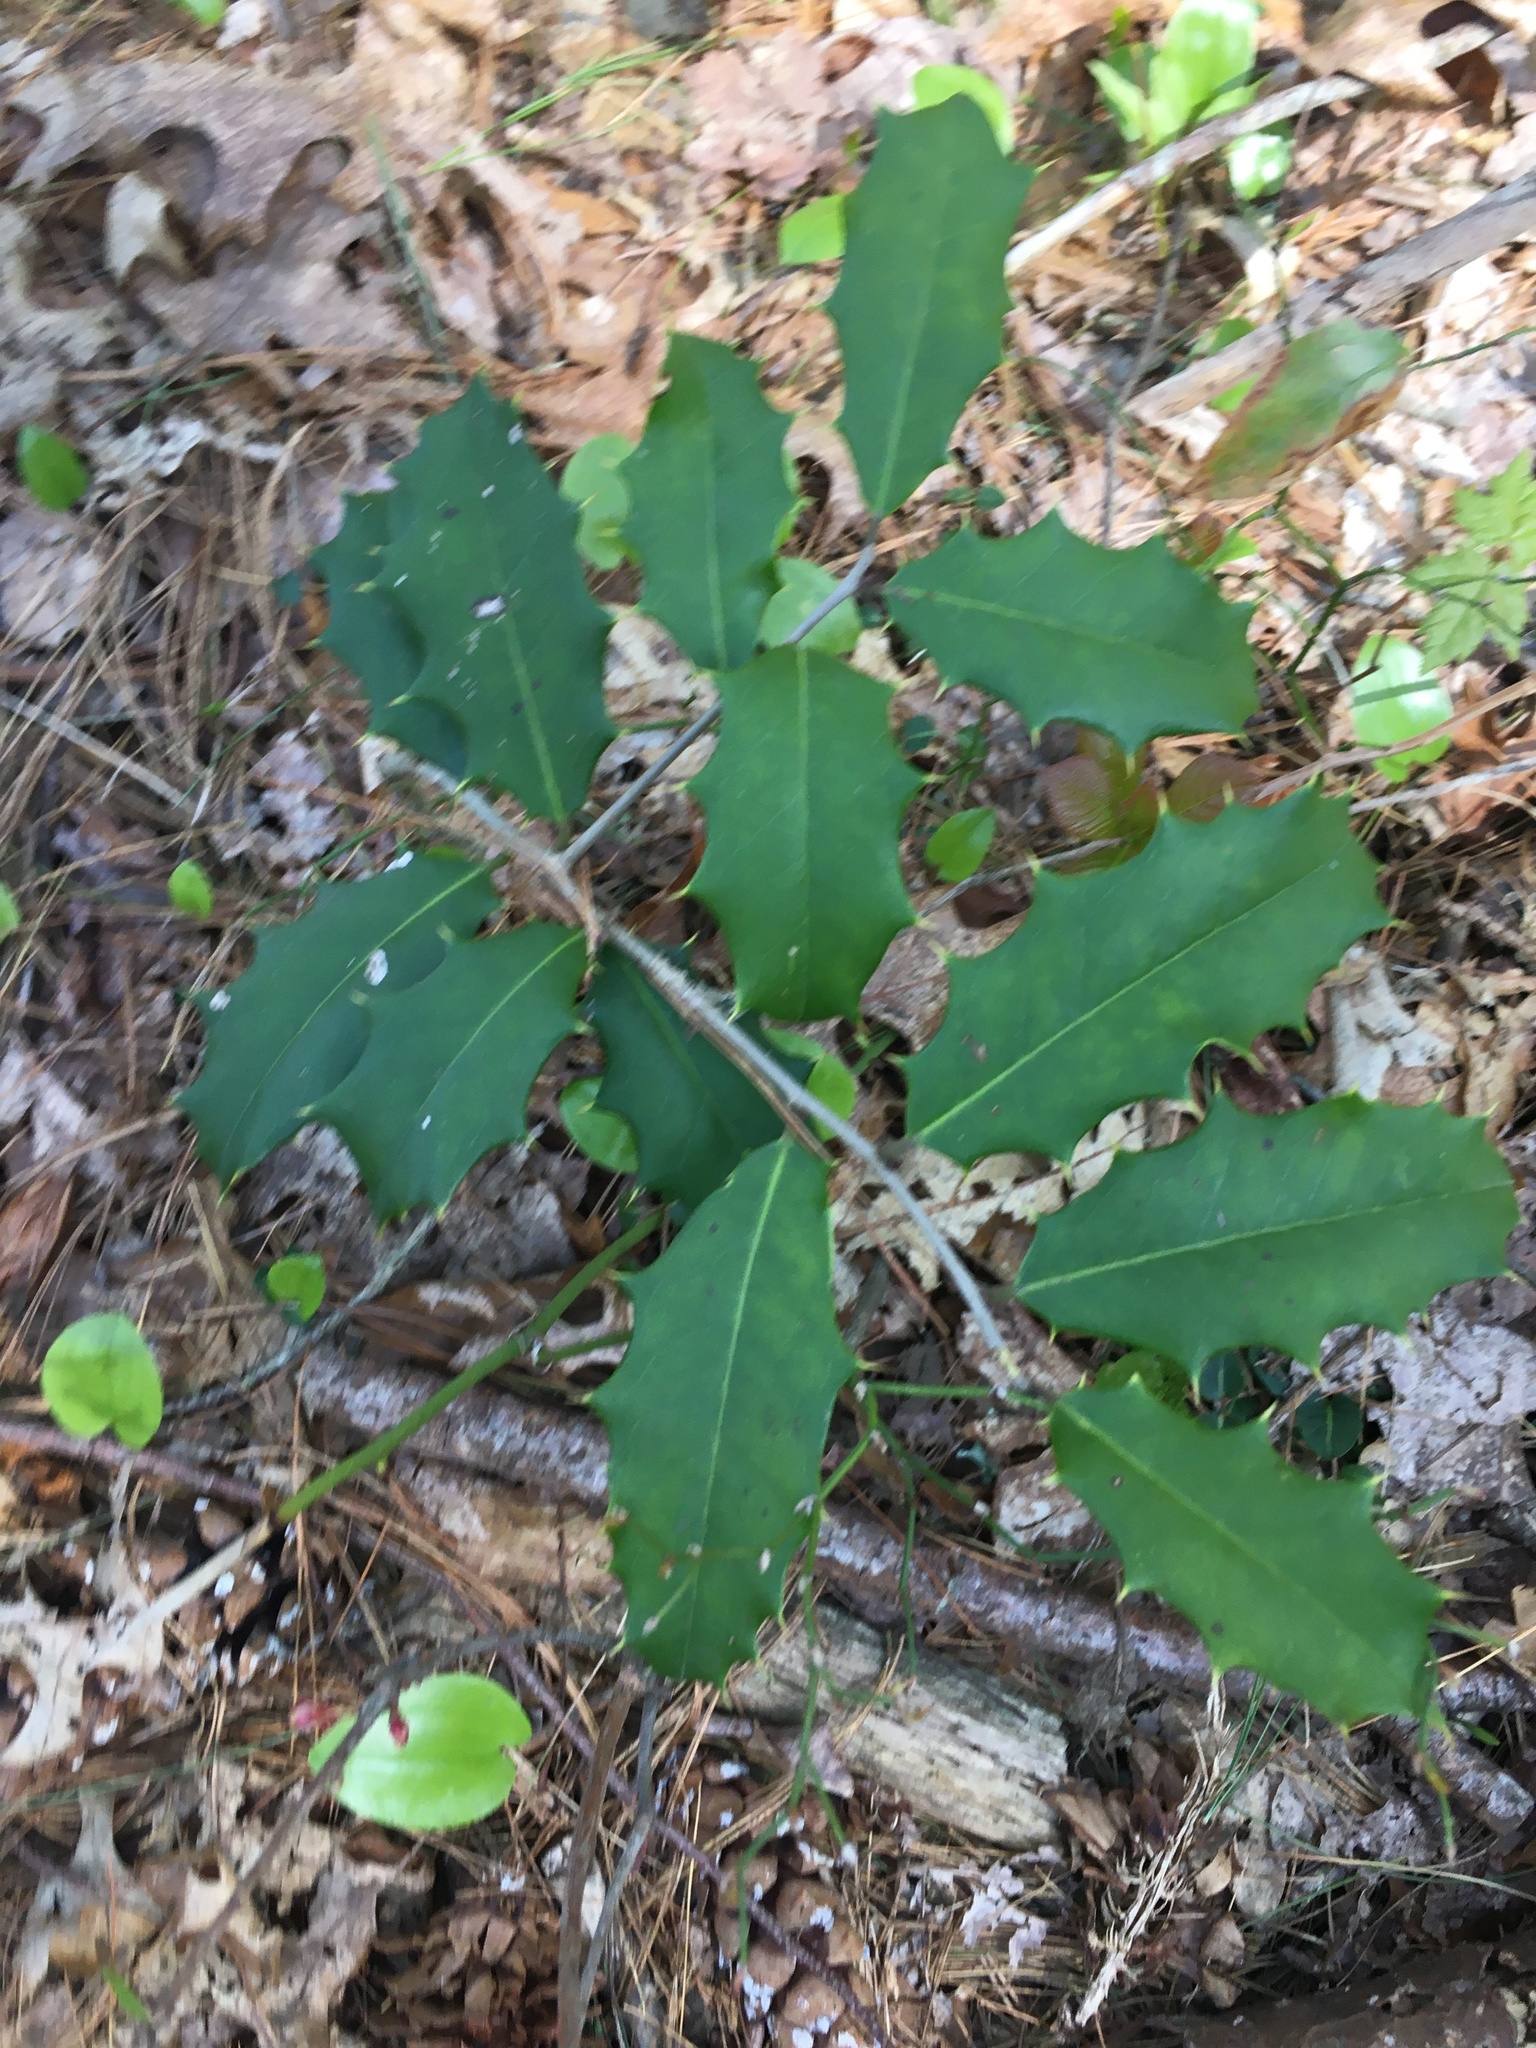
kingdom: Plantae
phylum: Tracheophyta
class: Magnoliopsida
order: Aquifoliales
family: Aquifoliaceae
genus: Ilex
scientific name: Ilex opaca
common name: American holly
